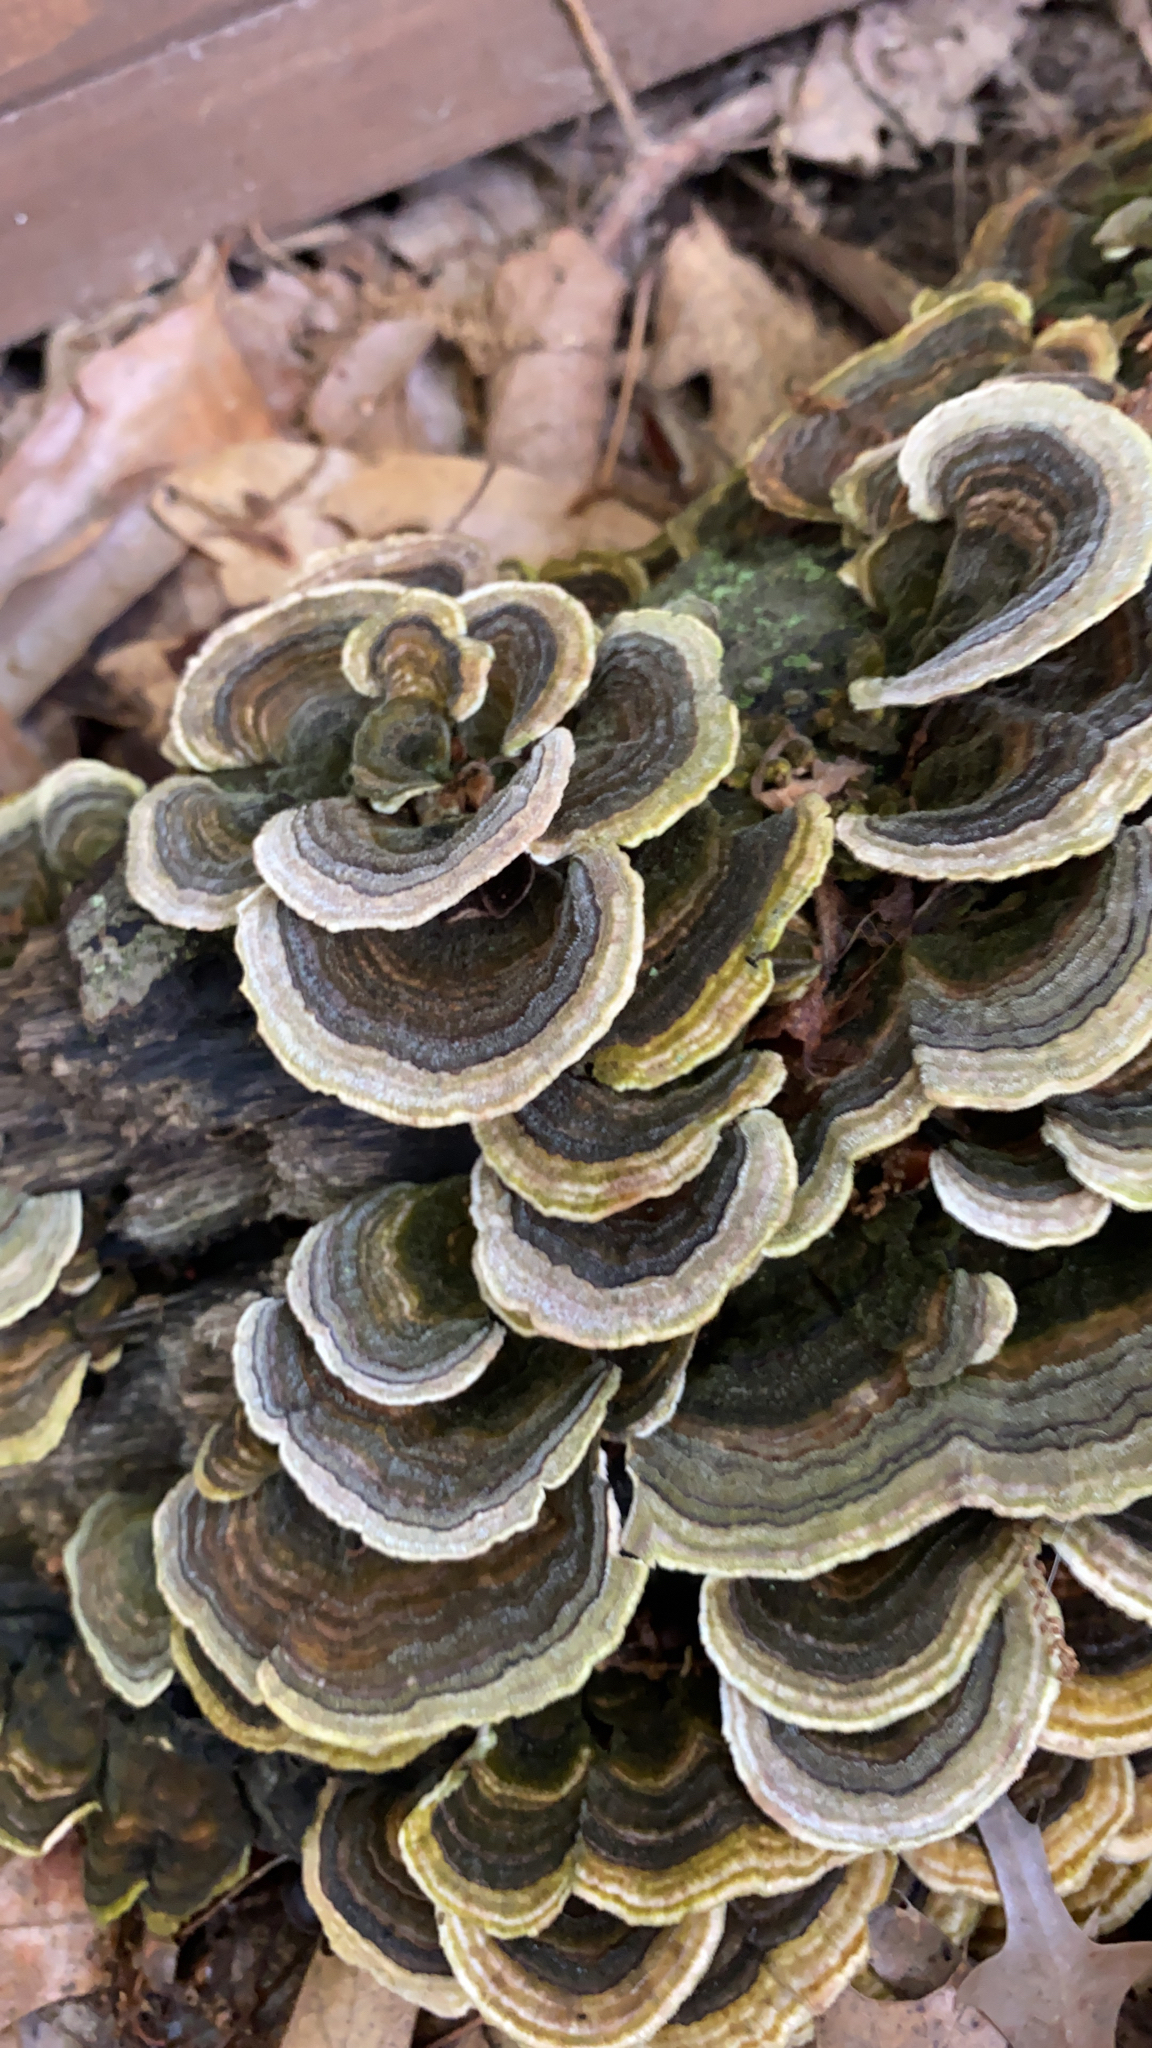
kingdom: Fungi
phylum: Basidiomycota
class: Agaricomycetes
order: Polyporales
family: Polyporaceae
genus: Trametes
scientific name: Trametes versicolor
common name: Turkeytail
